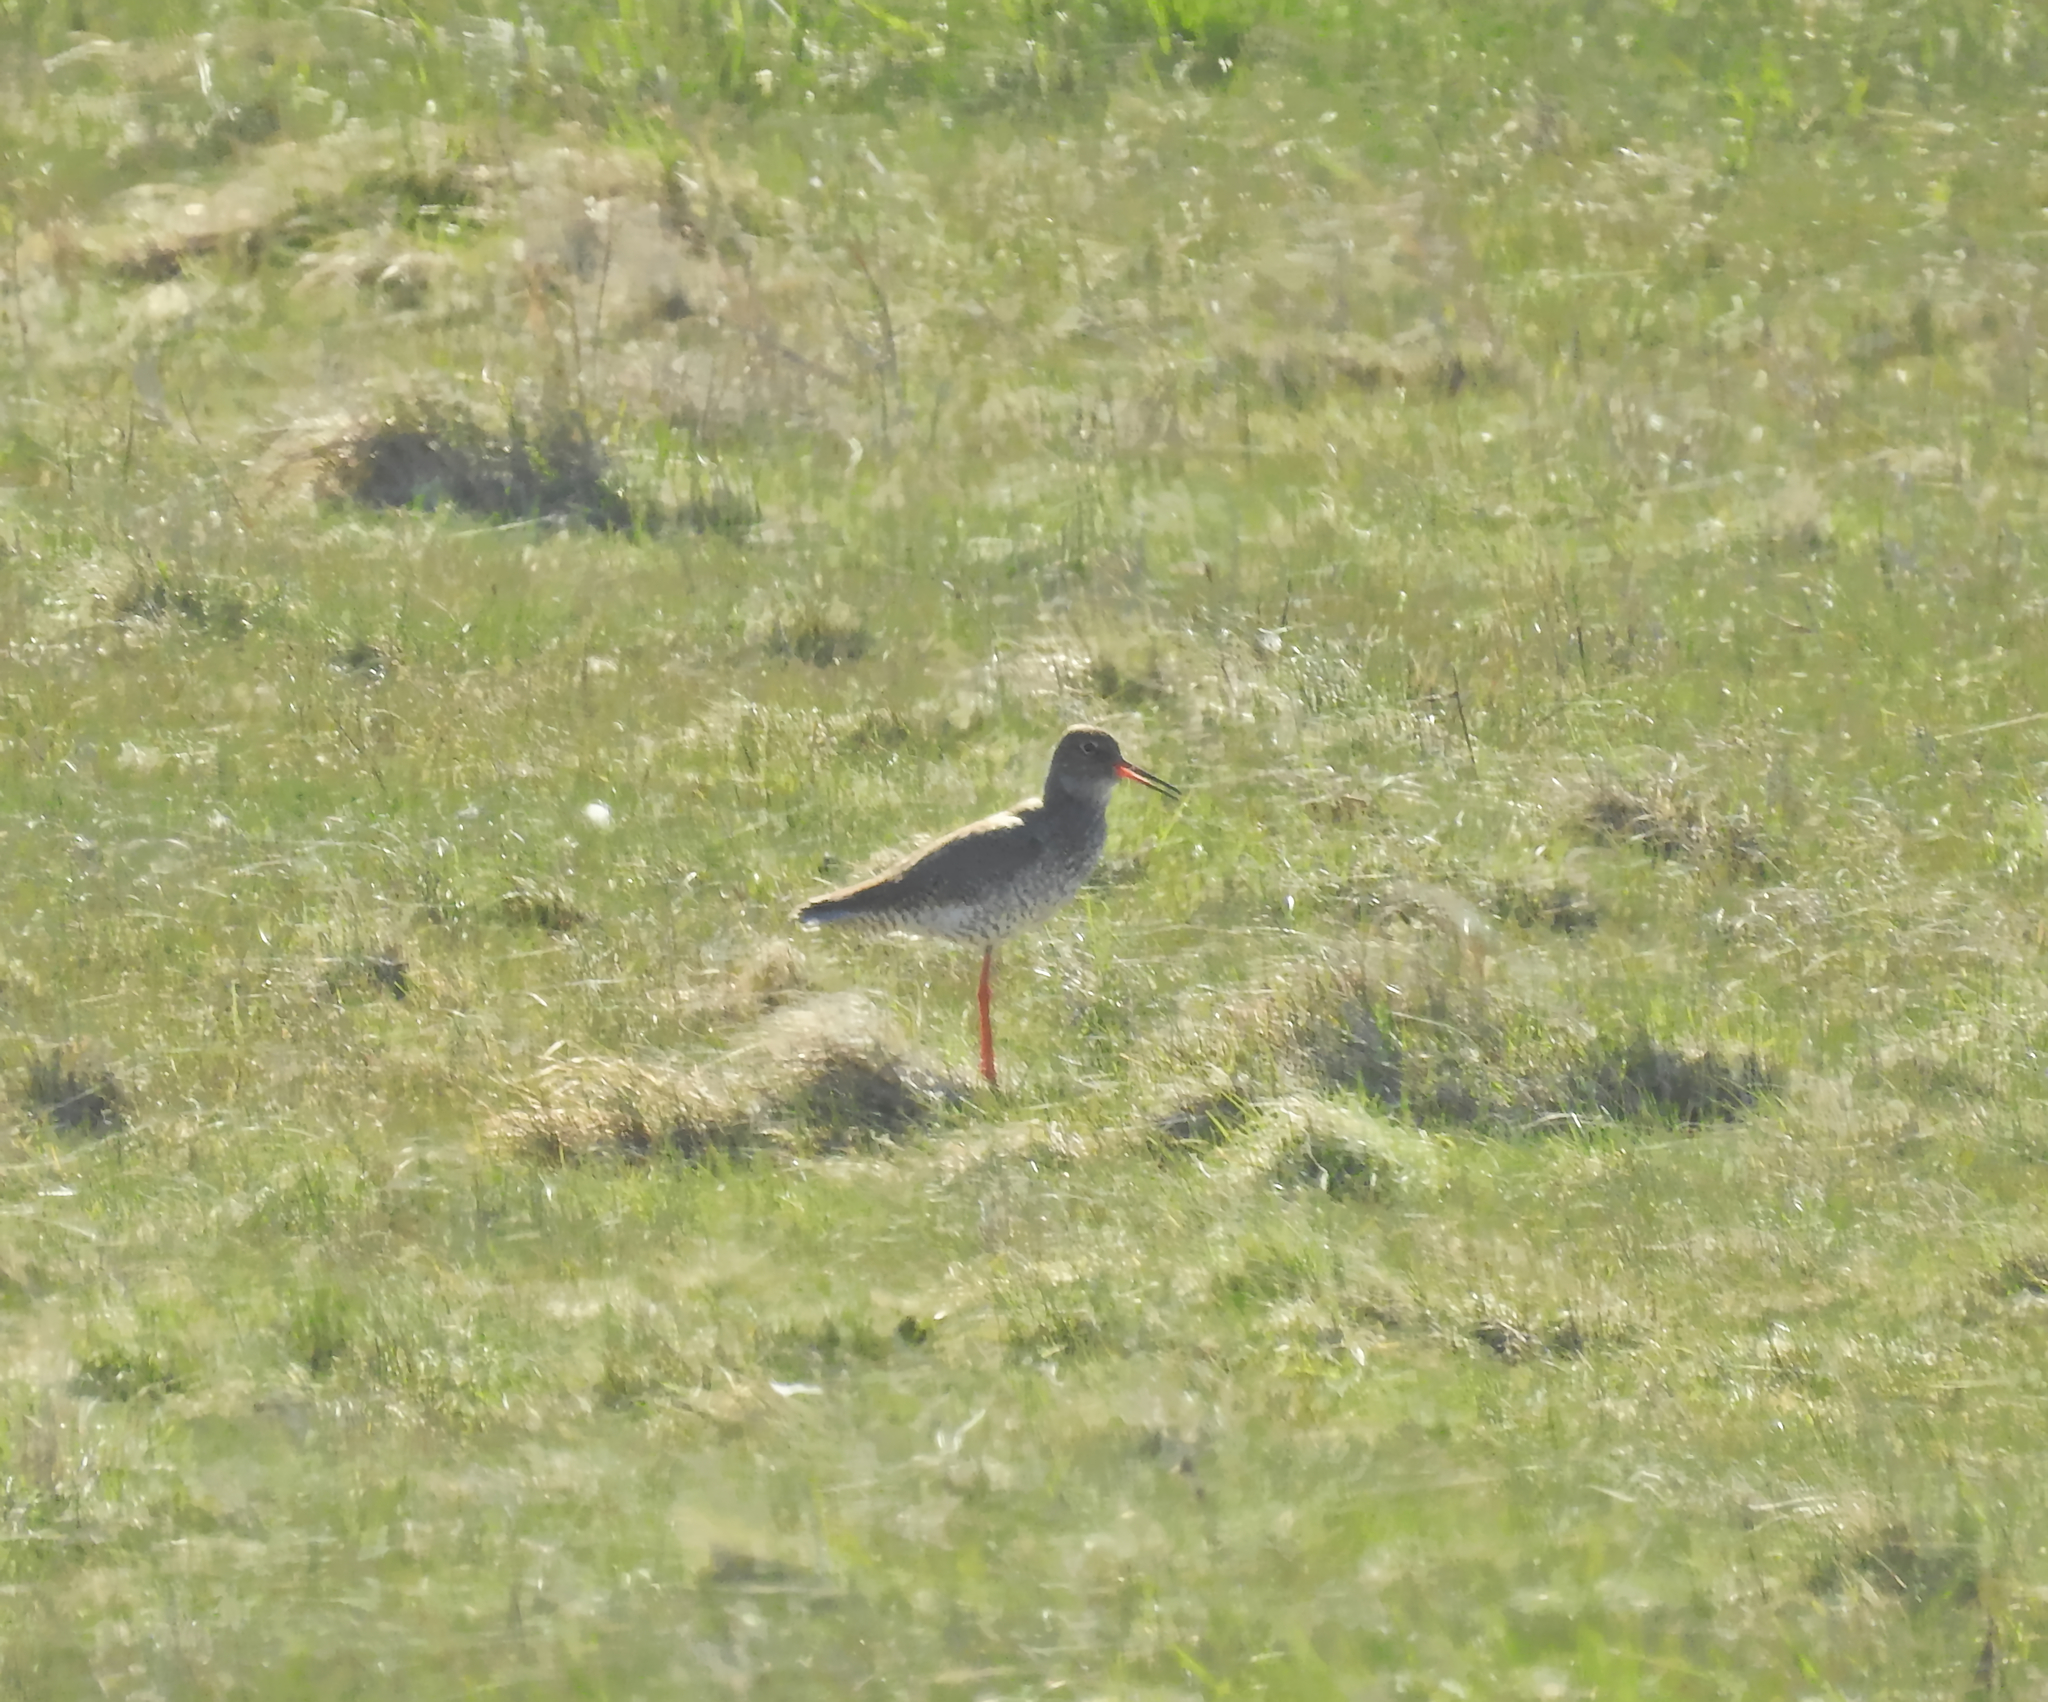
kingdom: Animalia
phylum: Chordata
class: Aves
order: Charadriiformes
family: Scolopacidae
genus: Tringa
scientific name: Tringa totanus
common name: Common redshank
